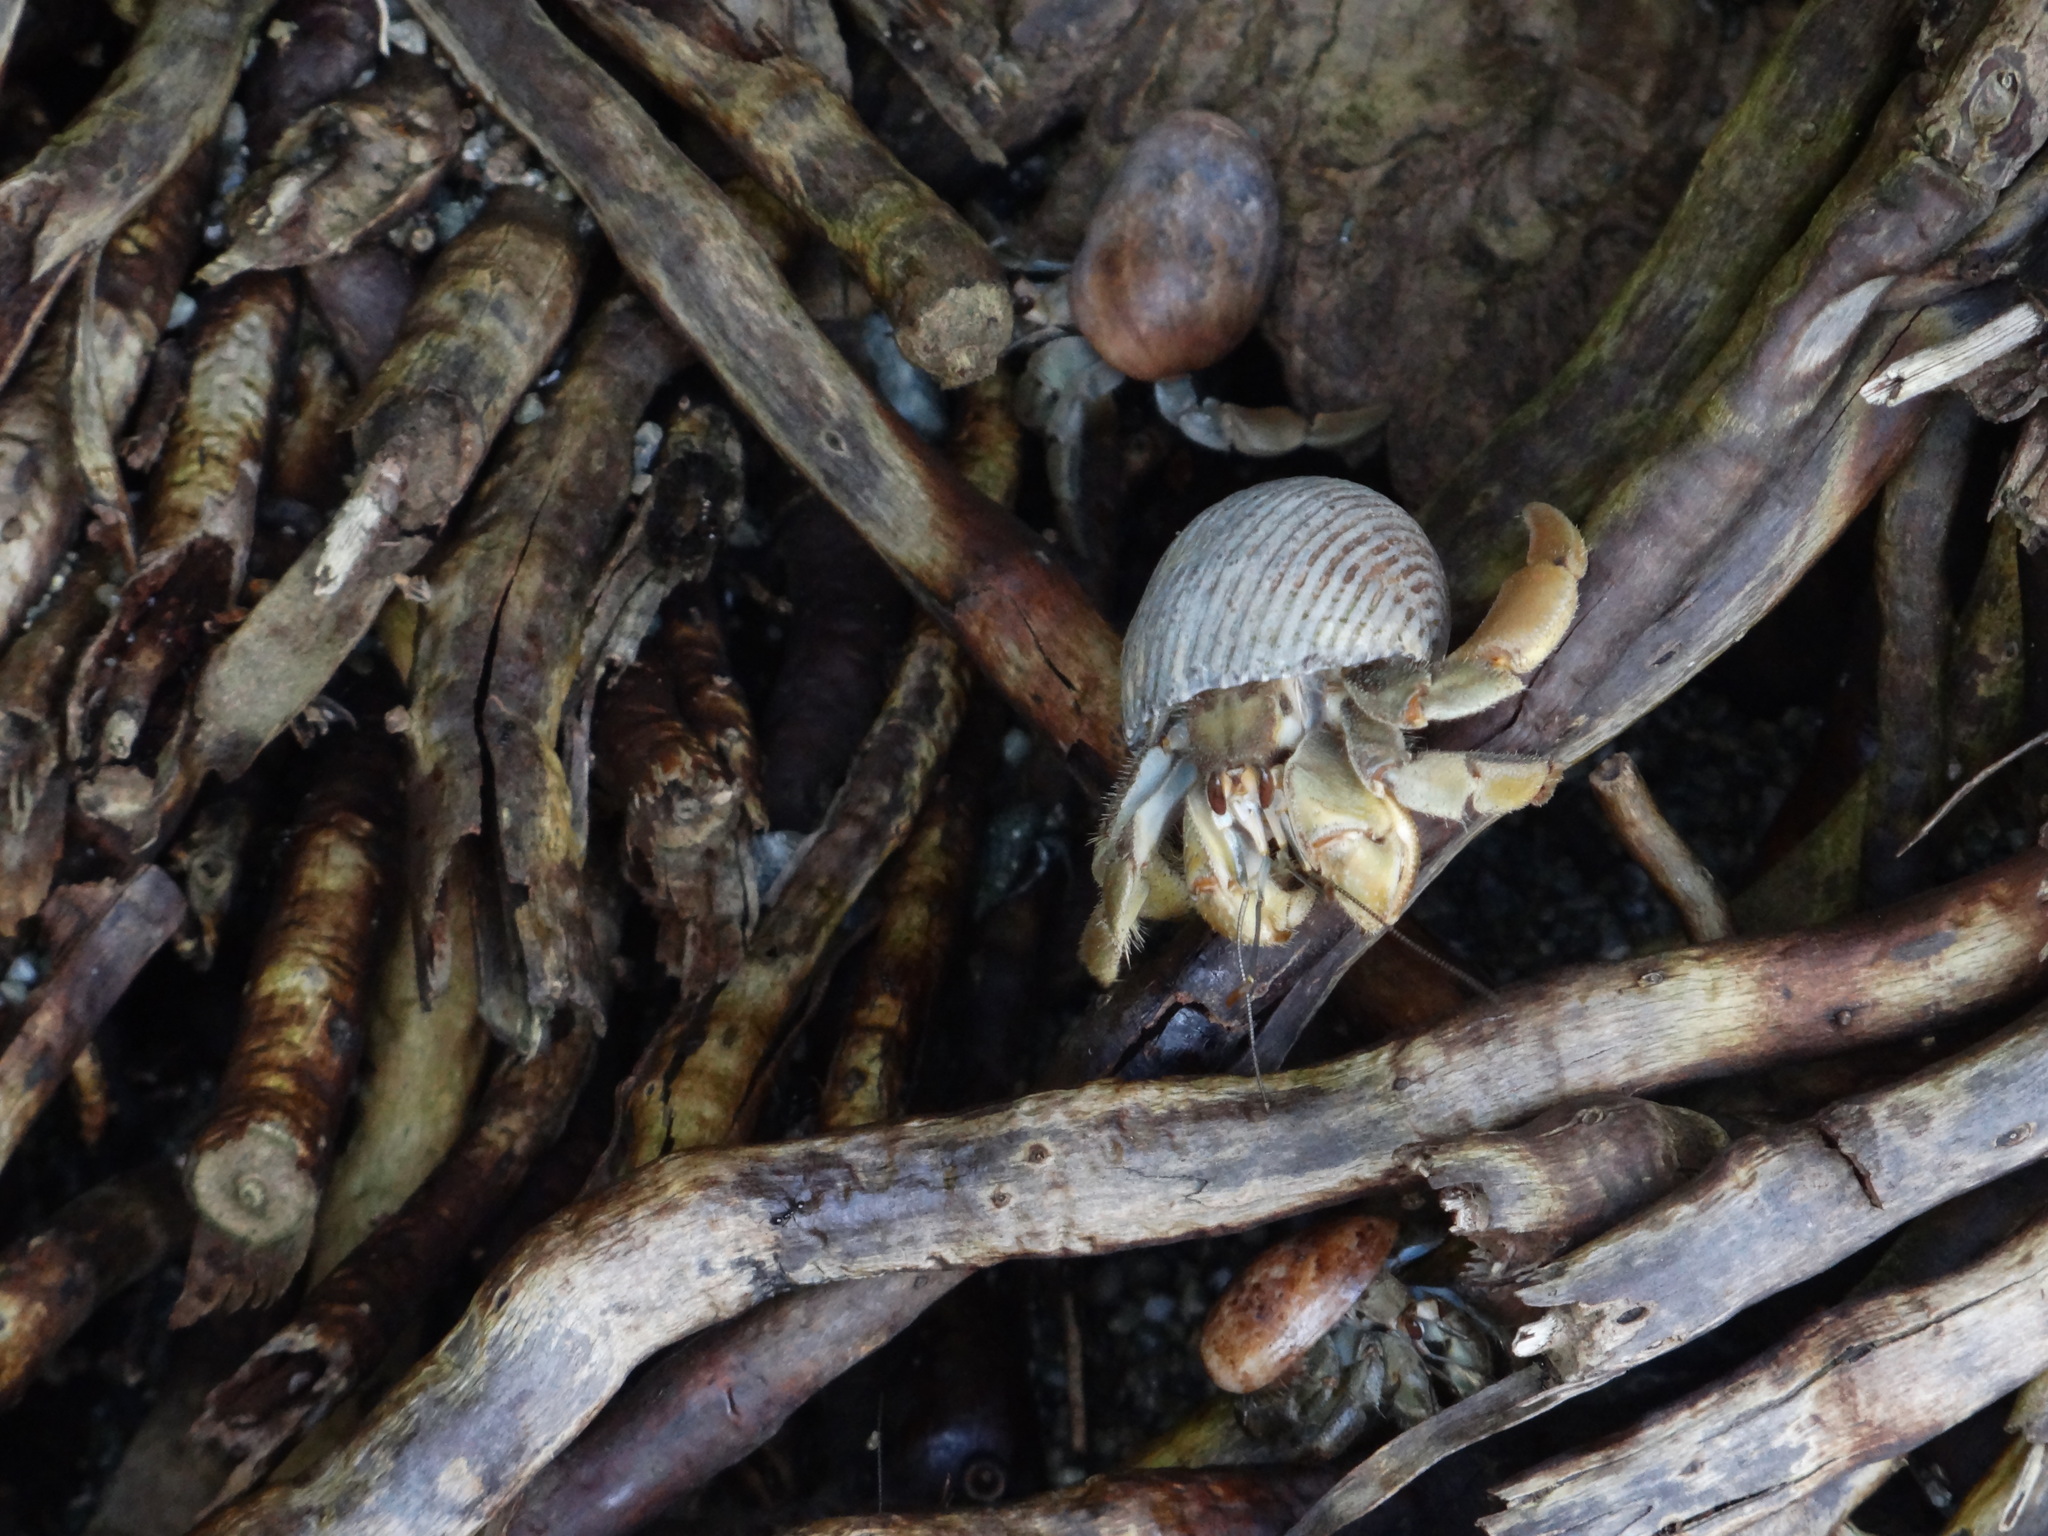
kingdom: Animalia
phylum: Arthropoda
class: Malacostraca
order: Decapoda
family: Coenobitidae
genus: Coenobita
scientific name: Coenobita compressus
